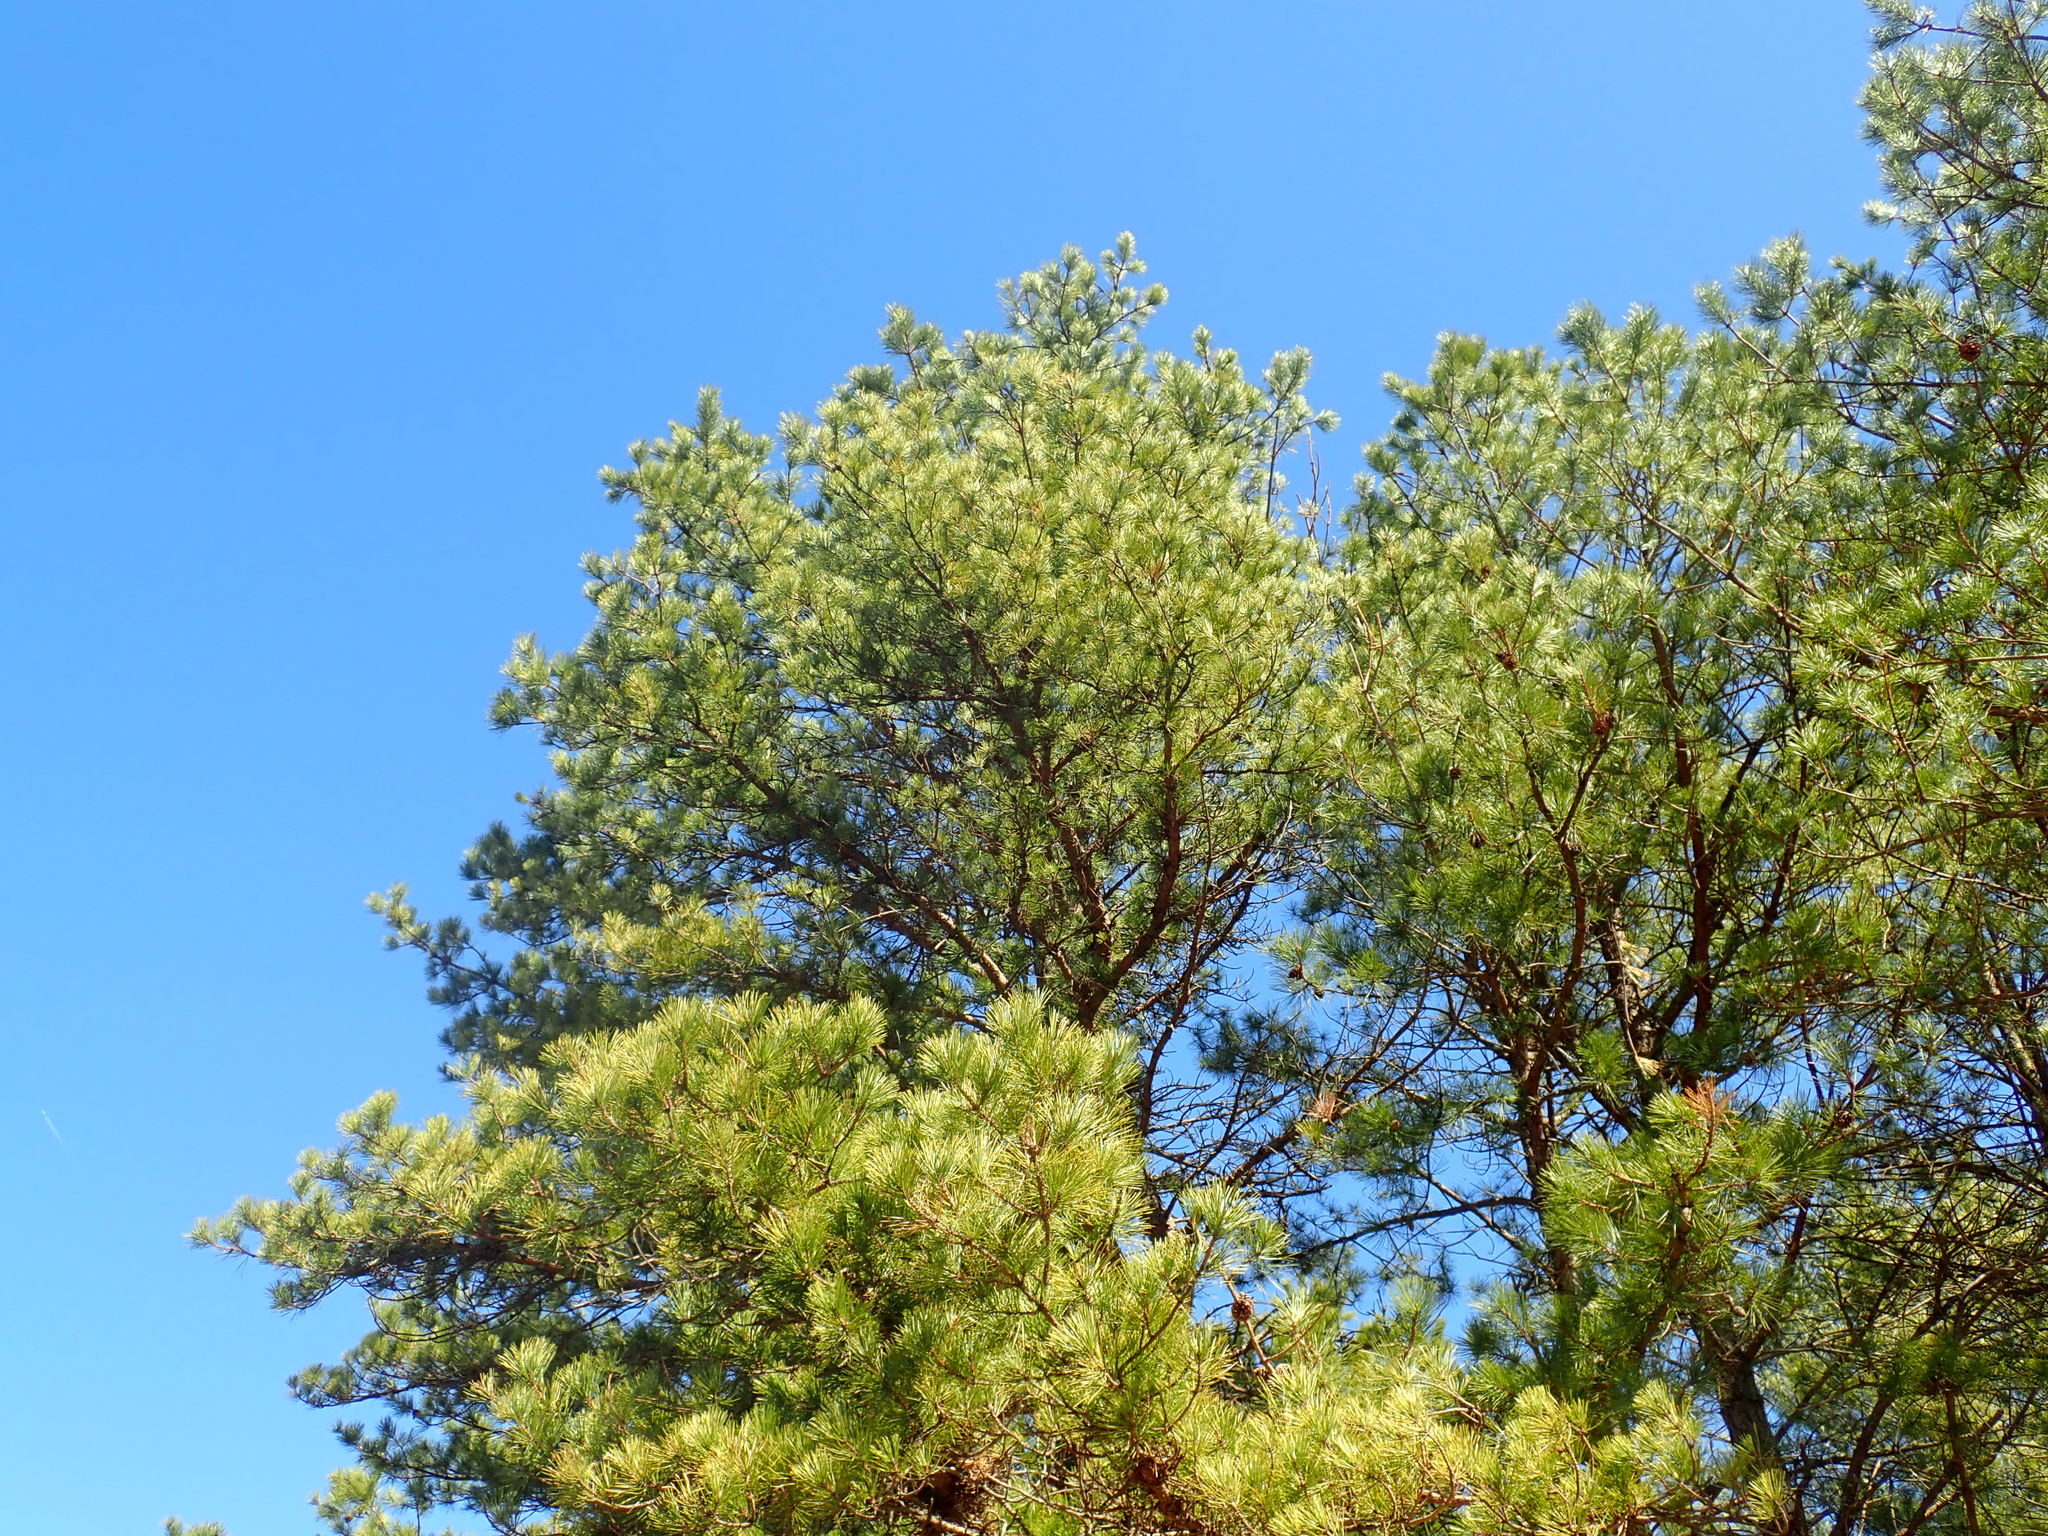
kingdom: Plantae
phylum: Tracheophyta
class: Pinopsida
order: Pinales
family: Pinaceae
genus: Pinus
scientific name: Pinus rigida
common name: Pitch pine
